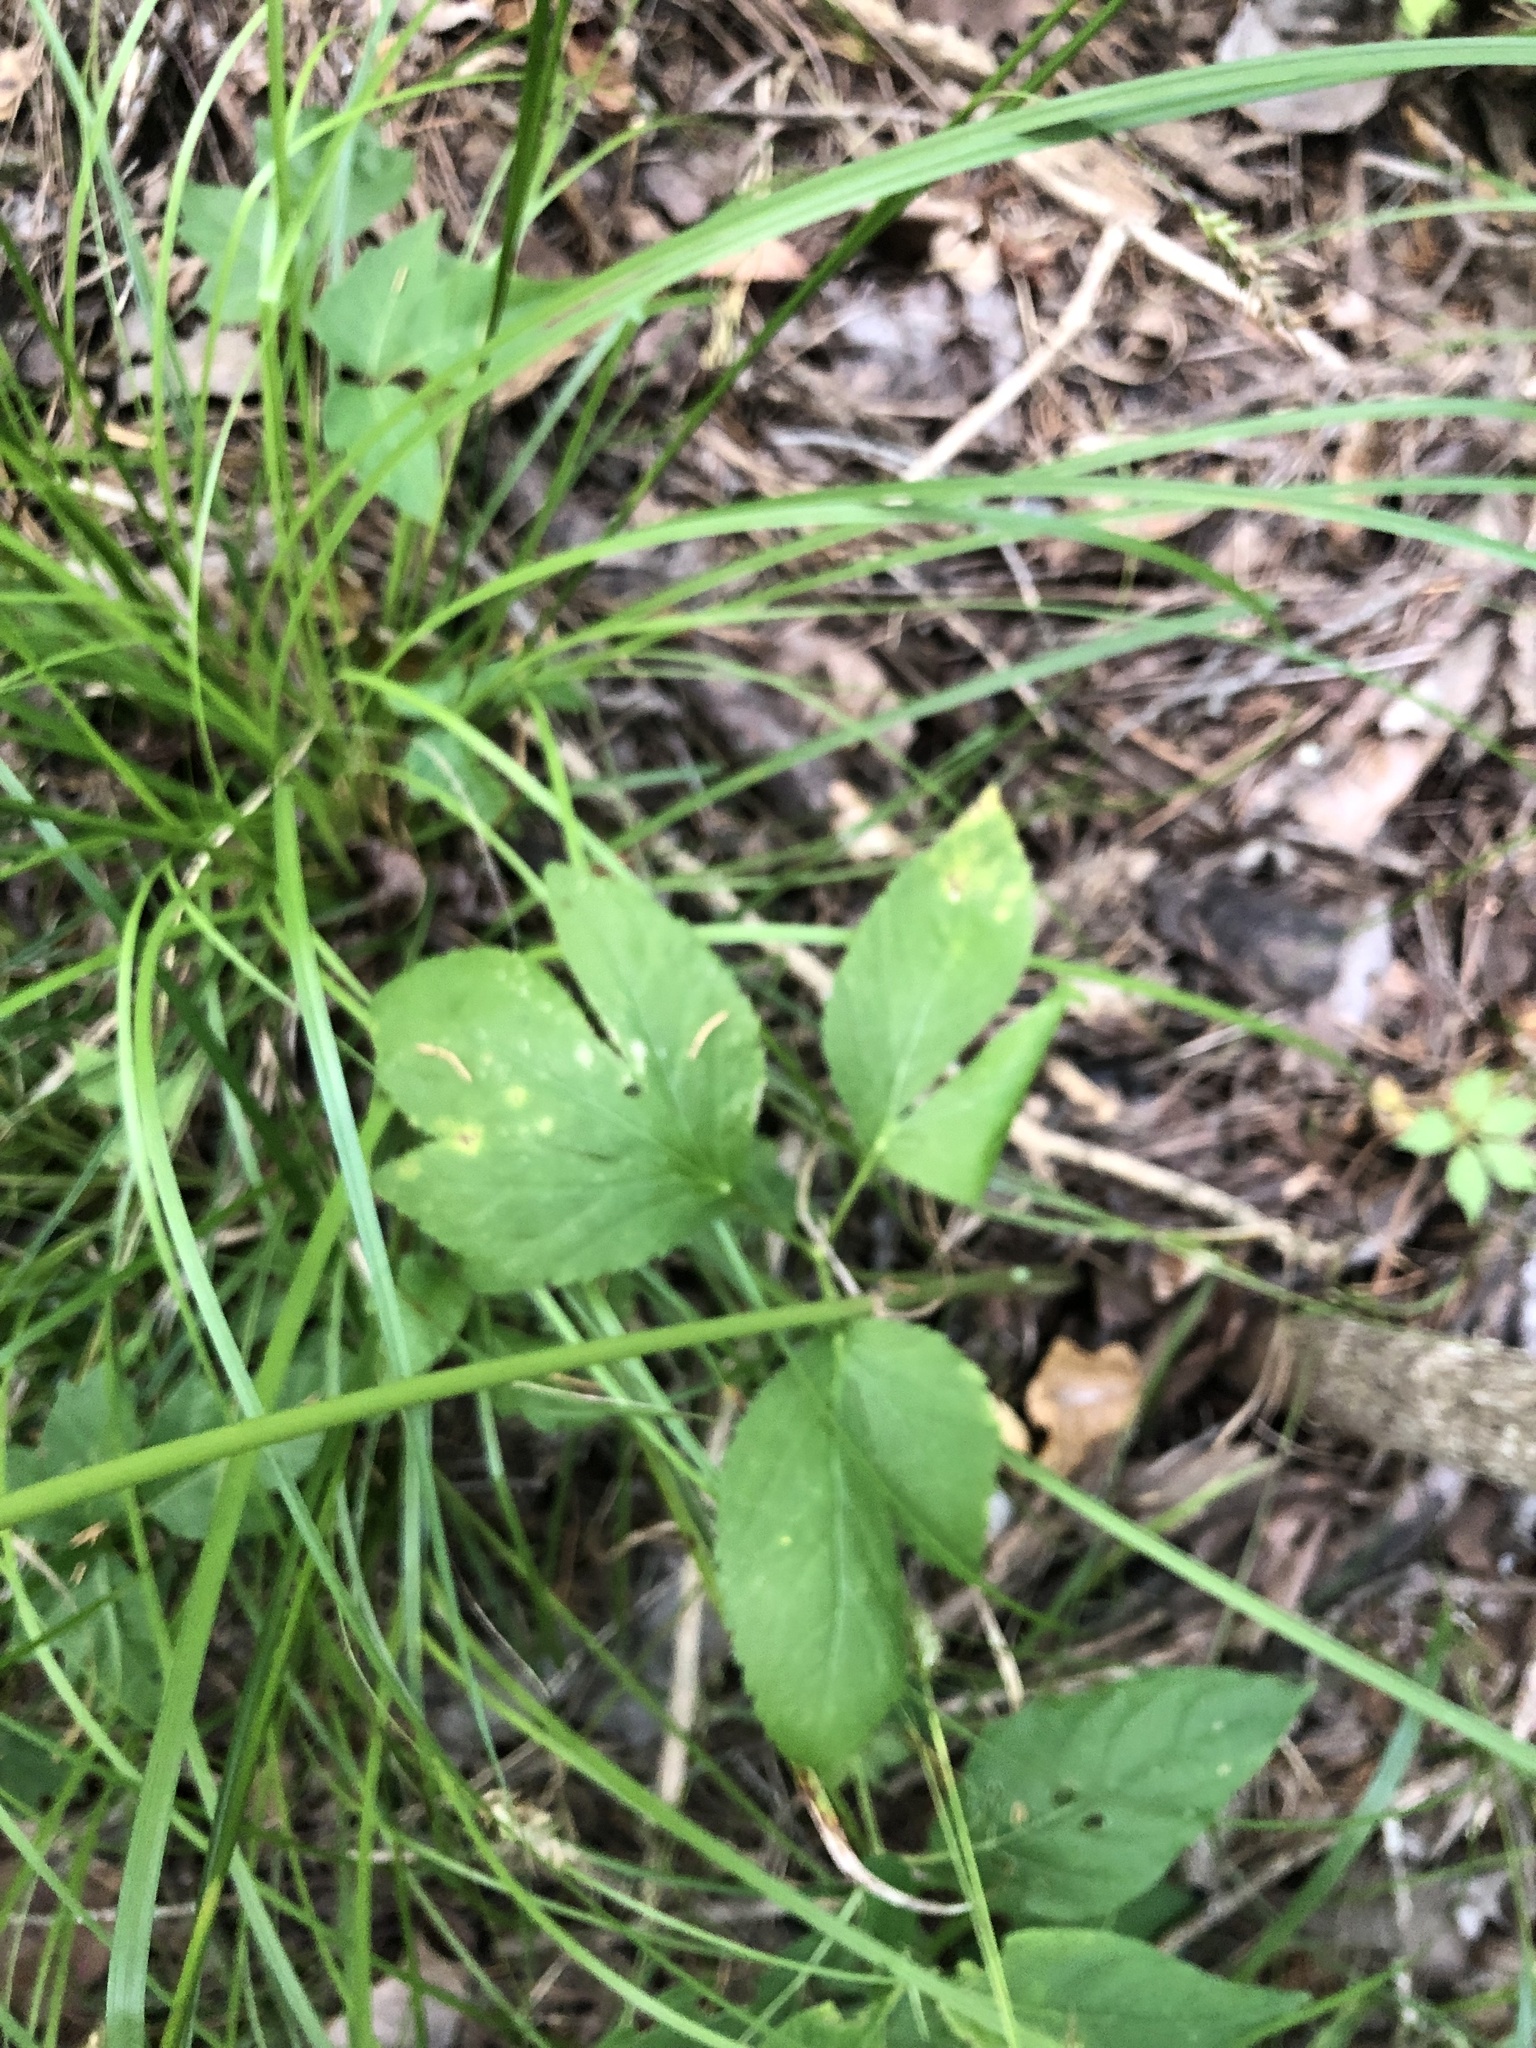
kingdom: Plantae
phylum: Tracheophyta
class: Magnoliopsida
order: Apiales
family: Apiaceae
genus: Cryptotaenia
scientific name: Cryptotaenia canadensis
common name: Honewort
